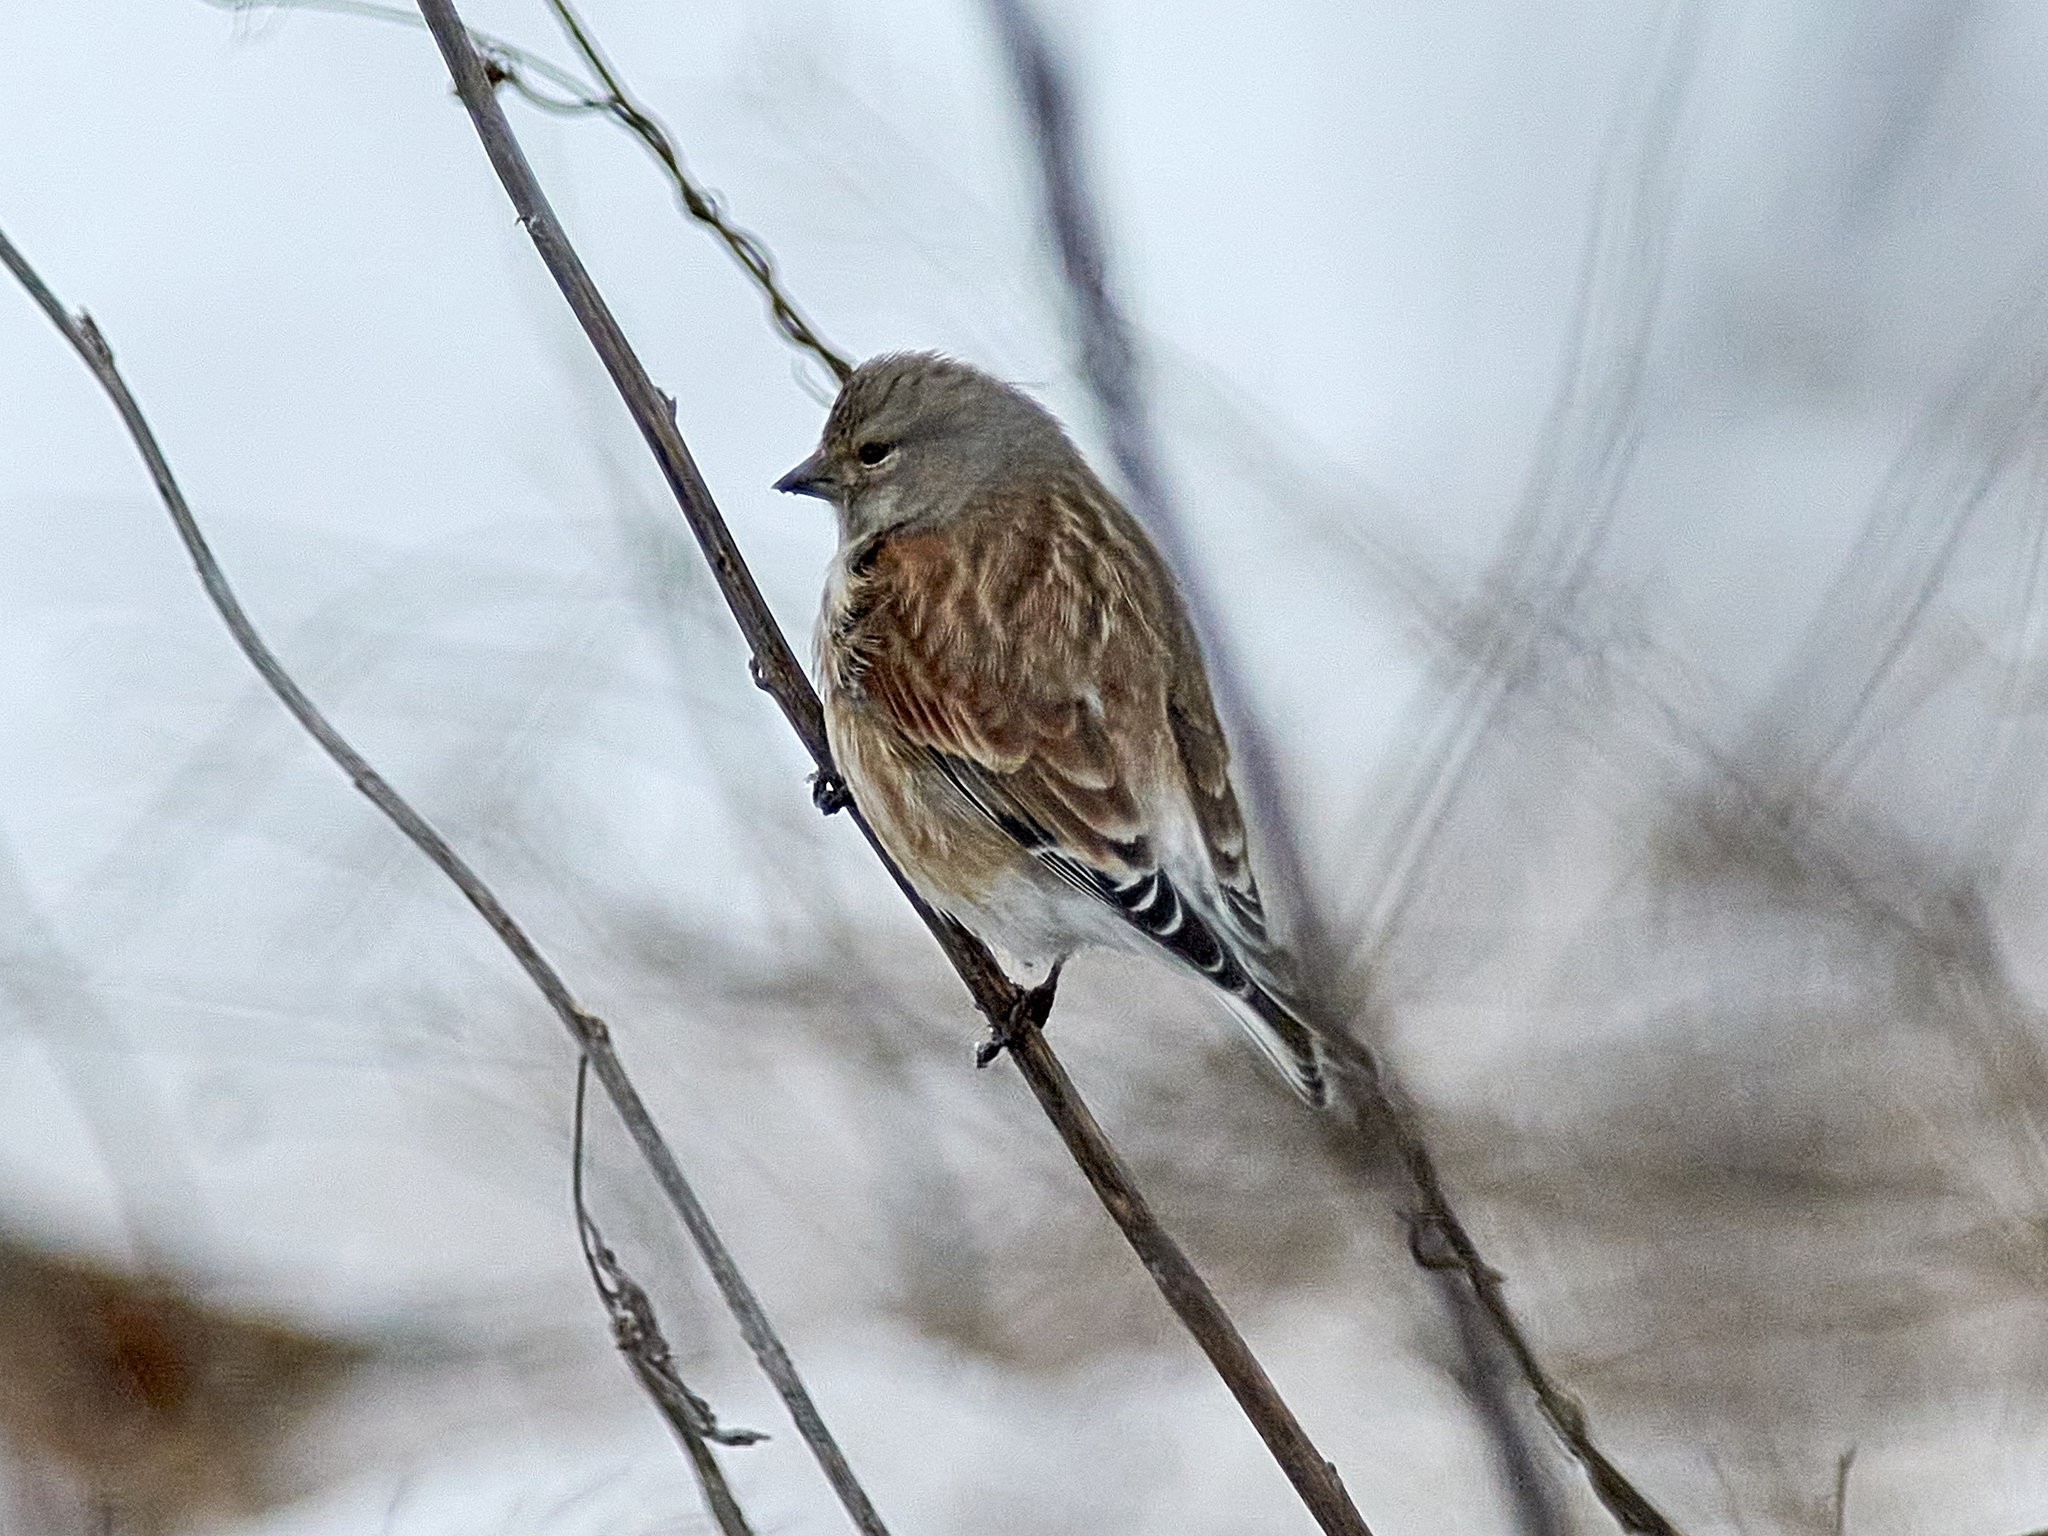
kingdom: Animalia
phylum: Chordata
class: Aves
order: Passeriformes
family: Fringillidae
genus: Linaria
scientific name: Linaria cannabina
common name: Common linnet
